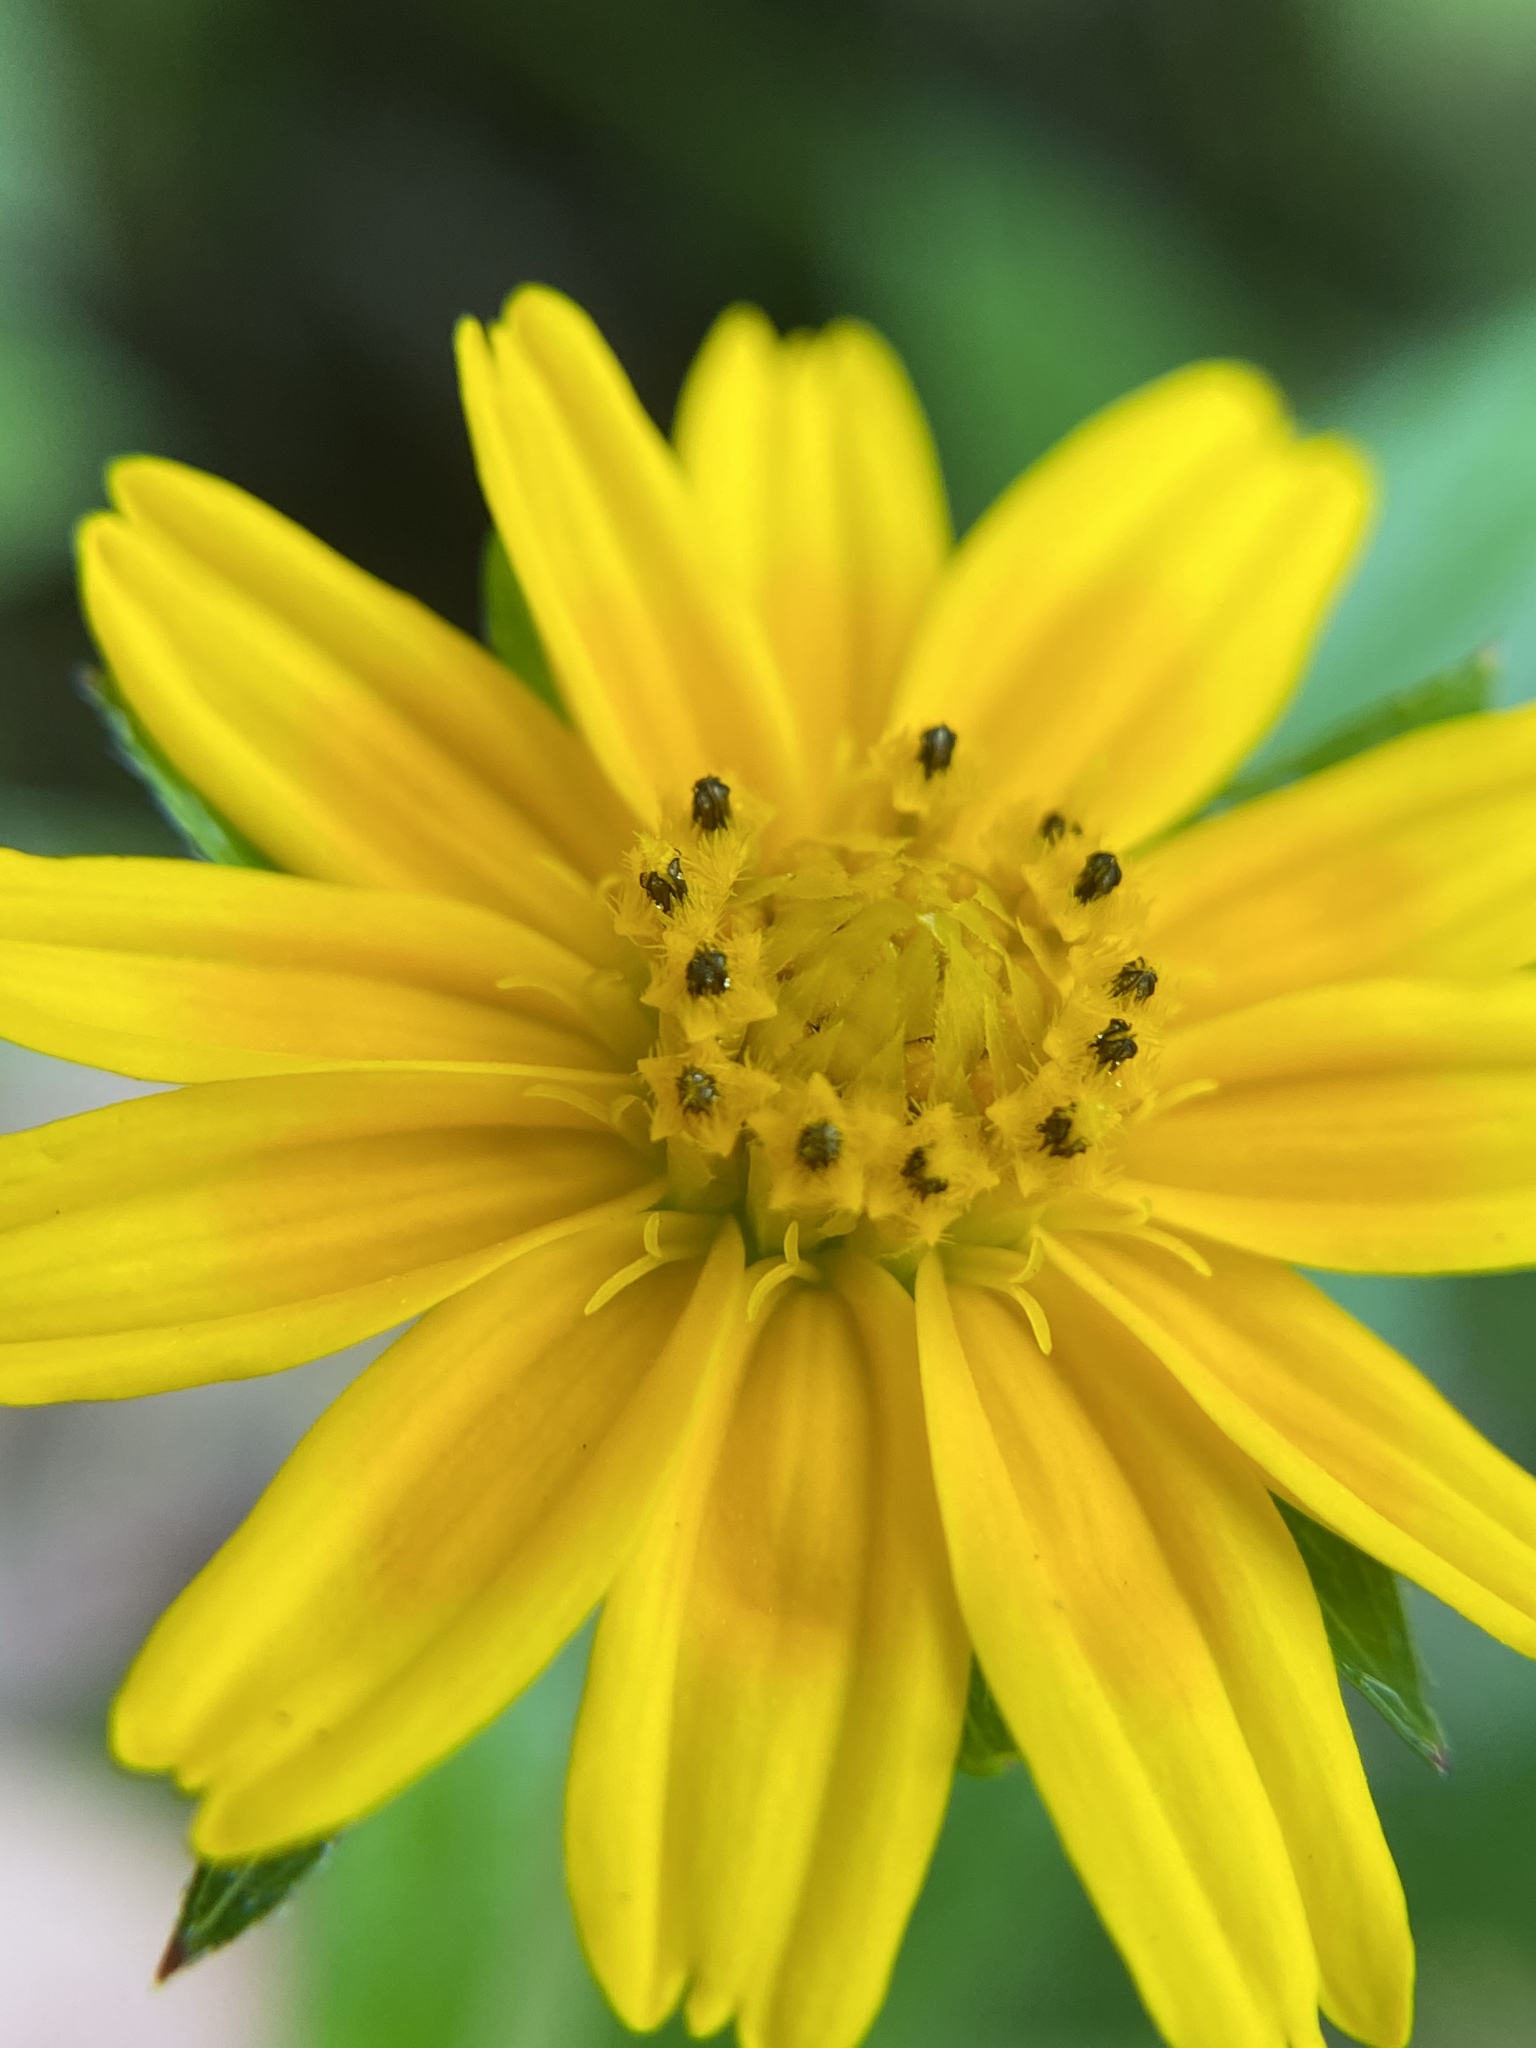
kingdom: Plantae
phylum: Tracheophyta
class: Magnoliopsida
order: Asterales
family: Asteraceae
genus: Sphagneticola
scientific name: Sphagneticola trilobata
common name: Bay biscayne creeping-oxeye
